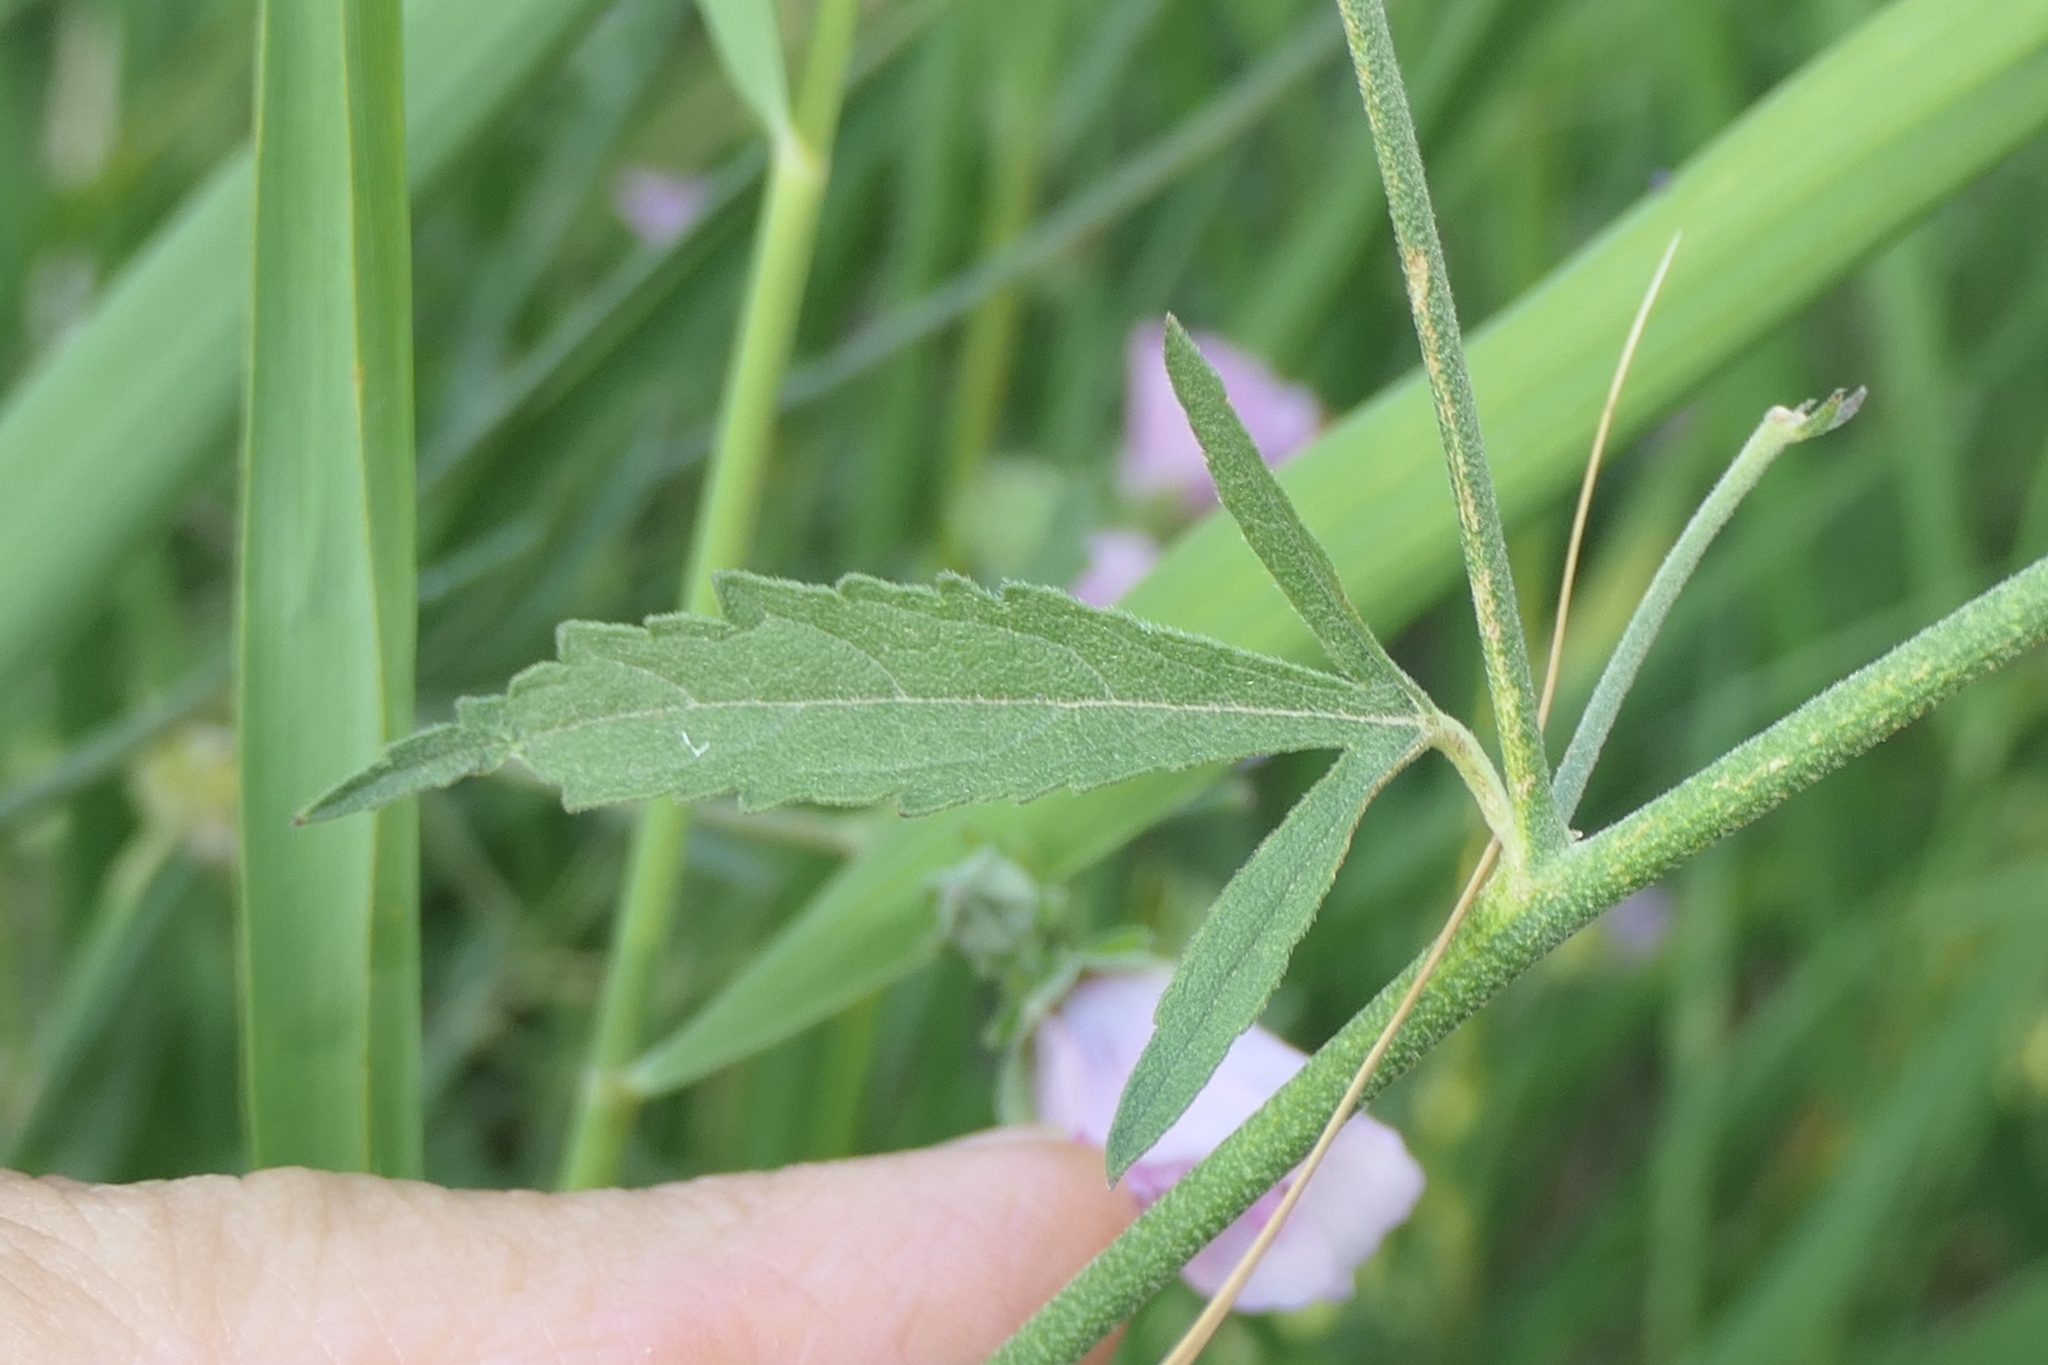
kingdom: Plantae
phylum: Tracheophyta
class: Magnoliopsida
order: Malvales
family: Malvaceae
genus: Althaea
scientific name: Althaea cannabina
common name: Palm-leaf marshmallow
